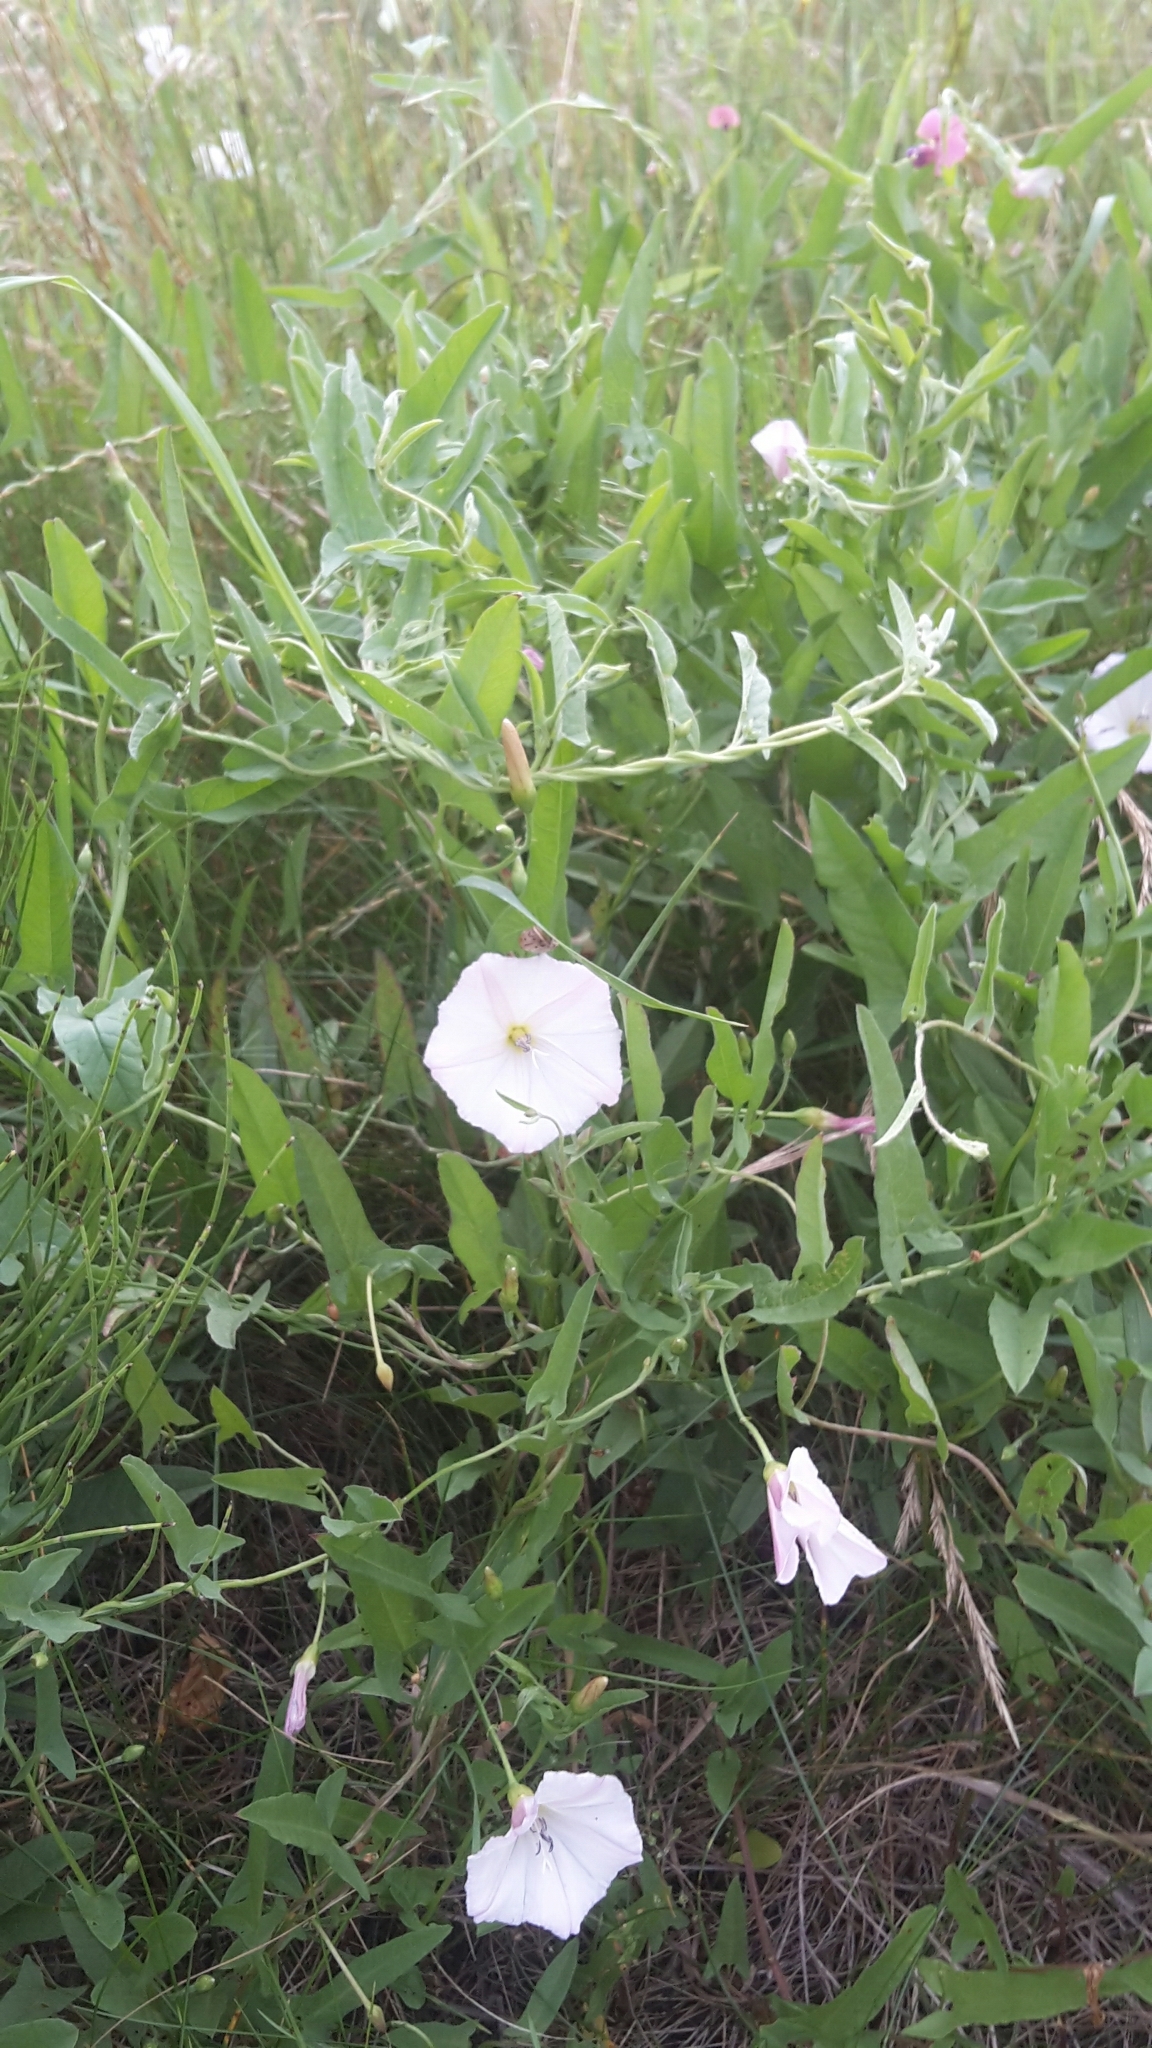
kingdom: Plantae
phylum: Tracheophyta
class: Magnoliopsida
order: Solanales
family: Convolvulaceae
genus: Convolvulus
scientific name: Convolvulus arvensis
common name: Field bindweed
